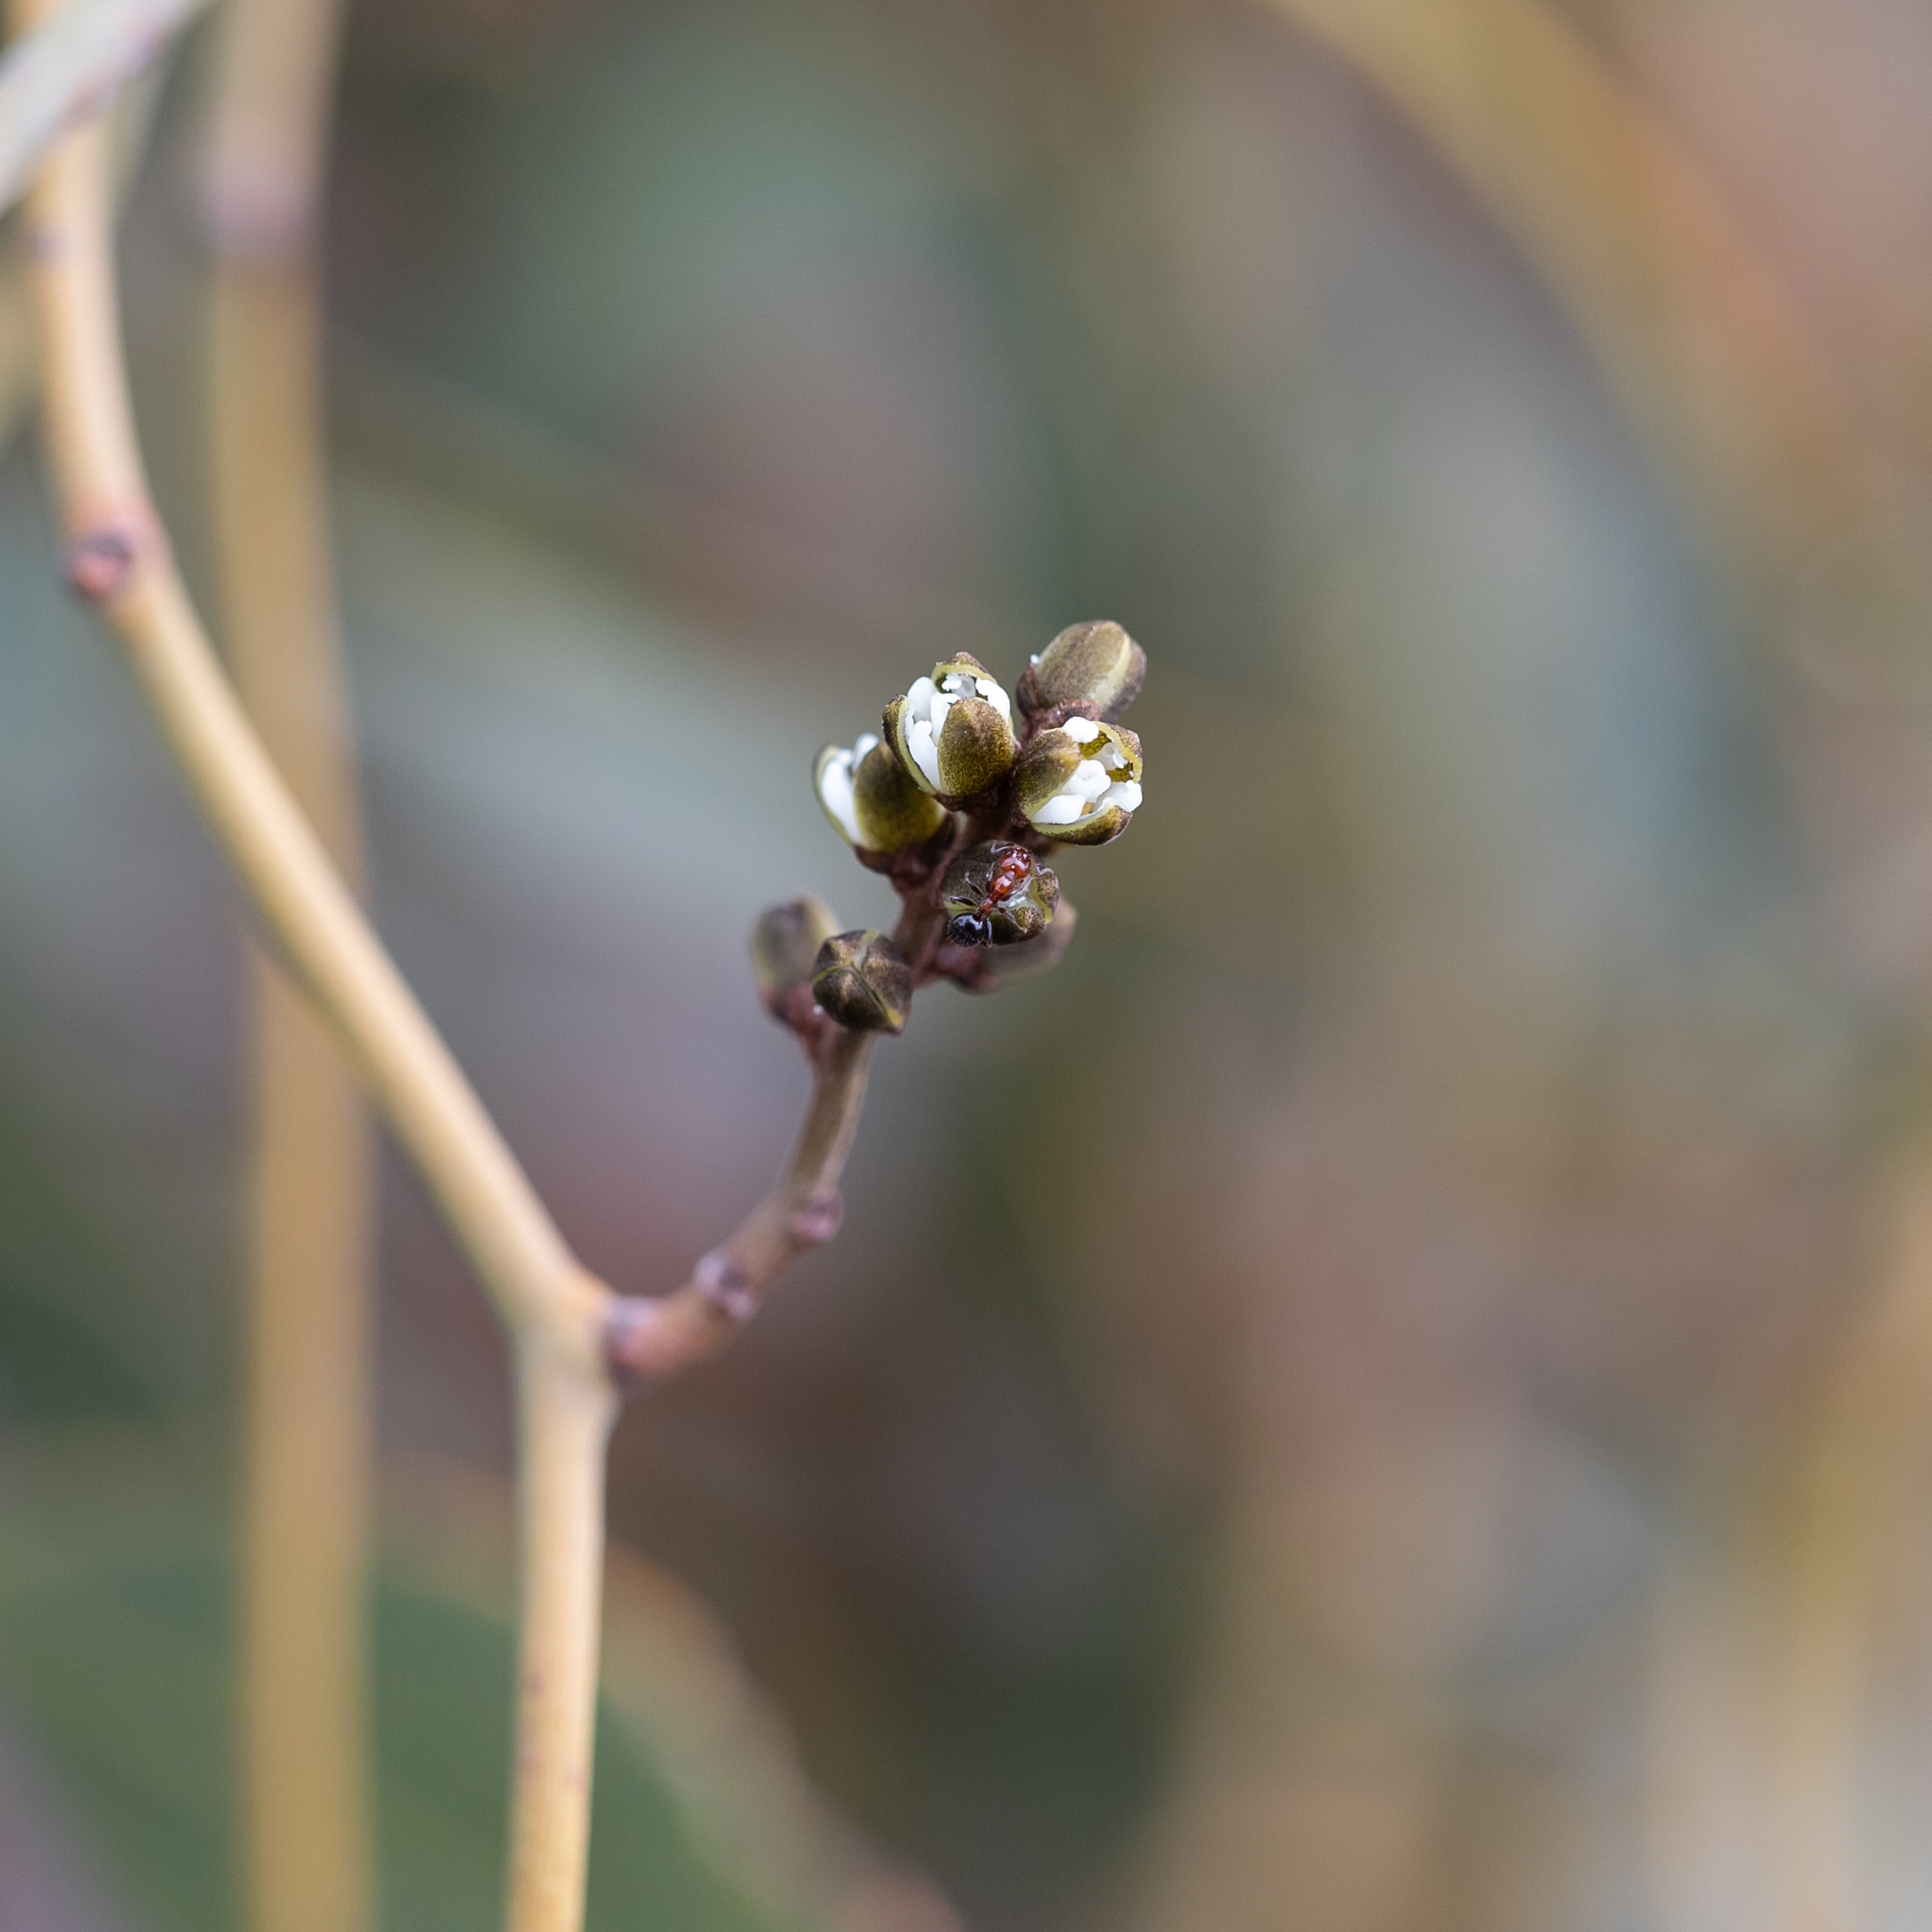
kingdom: Plantae
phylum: Tracheophyta
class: Magnoliopsida
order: Laurales
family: Lauraceae
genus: Cassytha
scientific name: Cassytha melantha
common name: Mallee stranglevine
